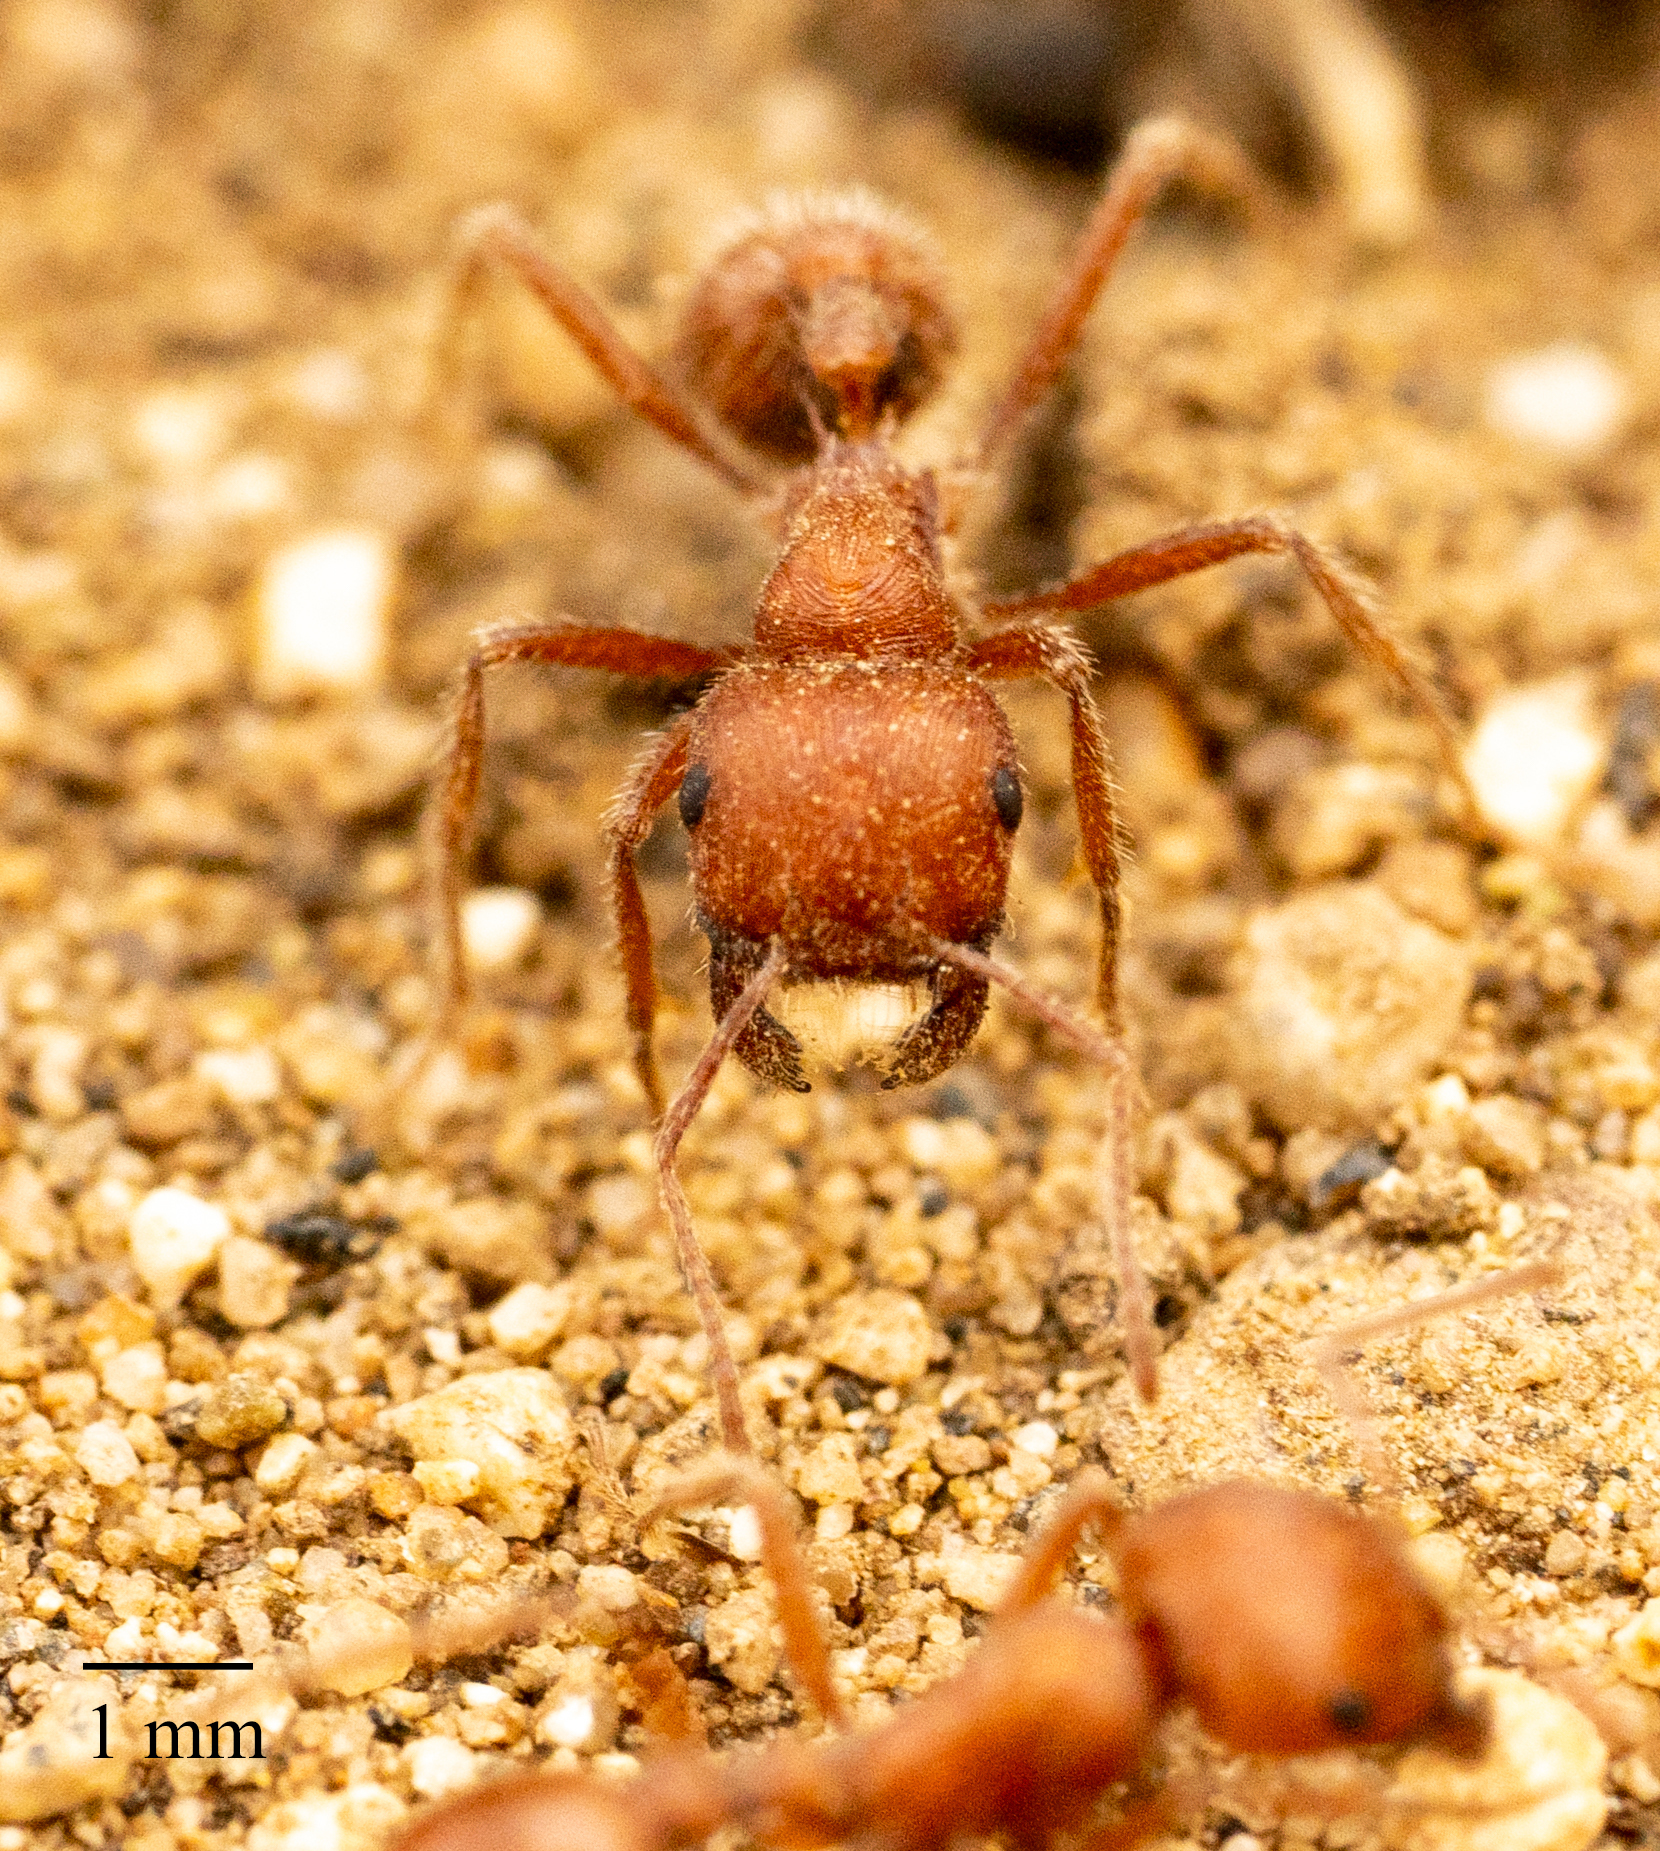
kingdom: Animalia
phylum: Arthropoda
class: Insecta
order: Hymenoptera
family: Formicidae
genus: Pogonomyrmex
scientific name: Pogonomyrmex subnitidus
